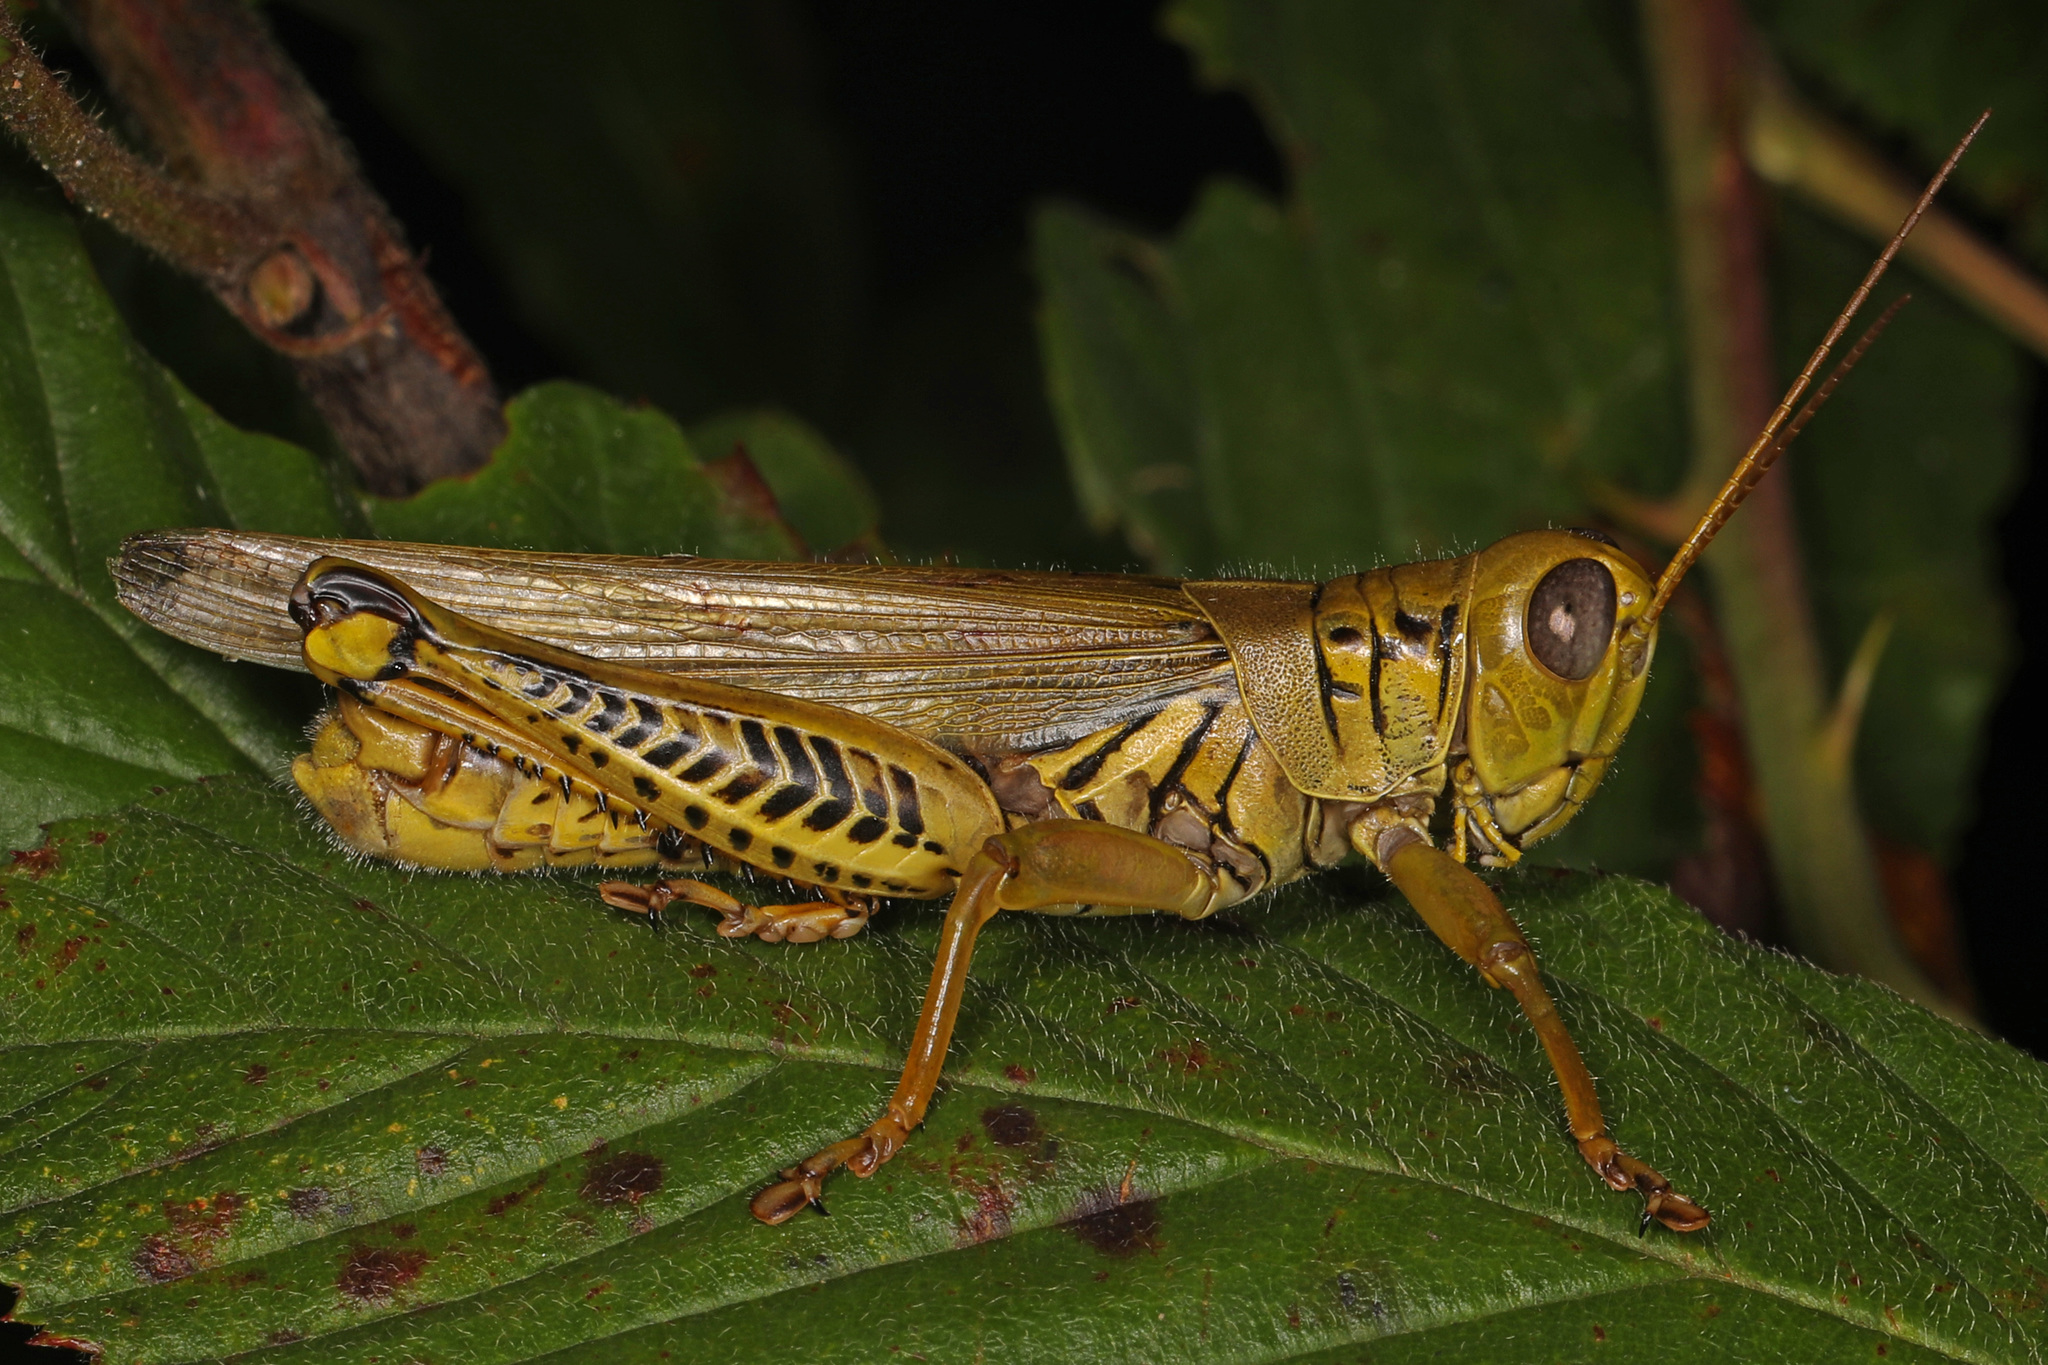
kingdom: Animalia
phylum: Arthropoda
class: Insecta
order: Orthoptera
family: Acrididae
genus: Melanoplus
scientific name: Melanoplus differentialis
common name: Differential grasshopper
